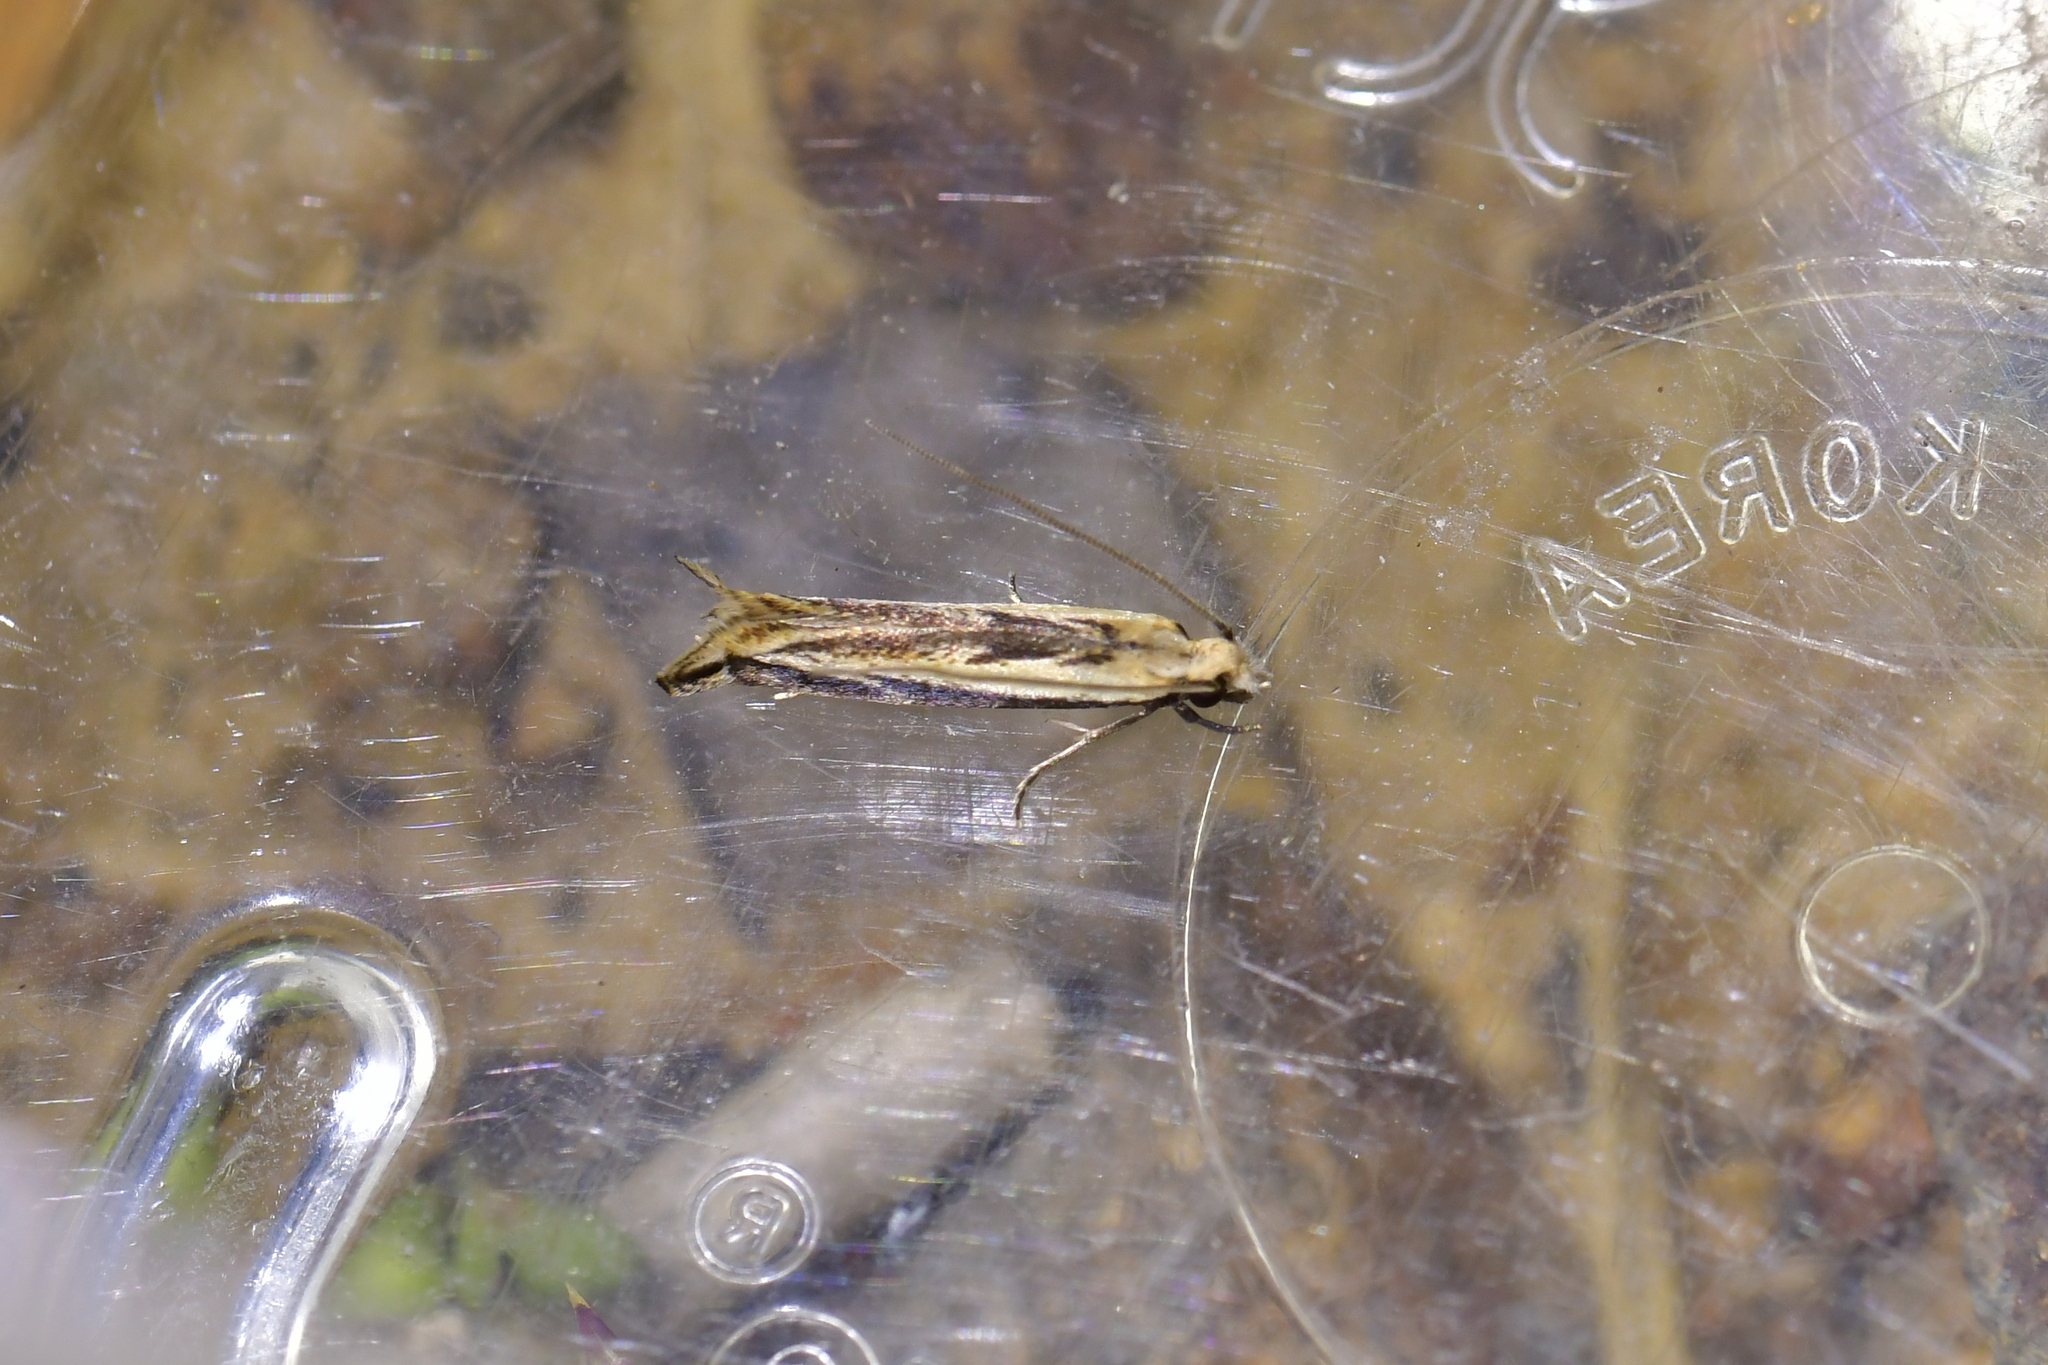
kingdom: Animalia
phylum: Arthropoda
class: Insecta
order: Lepidoptera
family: Tineidae
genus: Erechthias
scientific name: Erechthias charadrota
